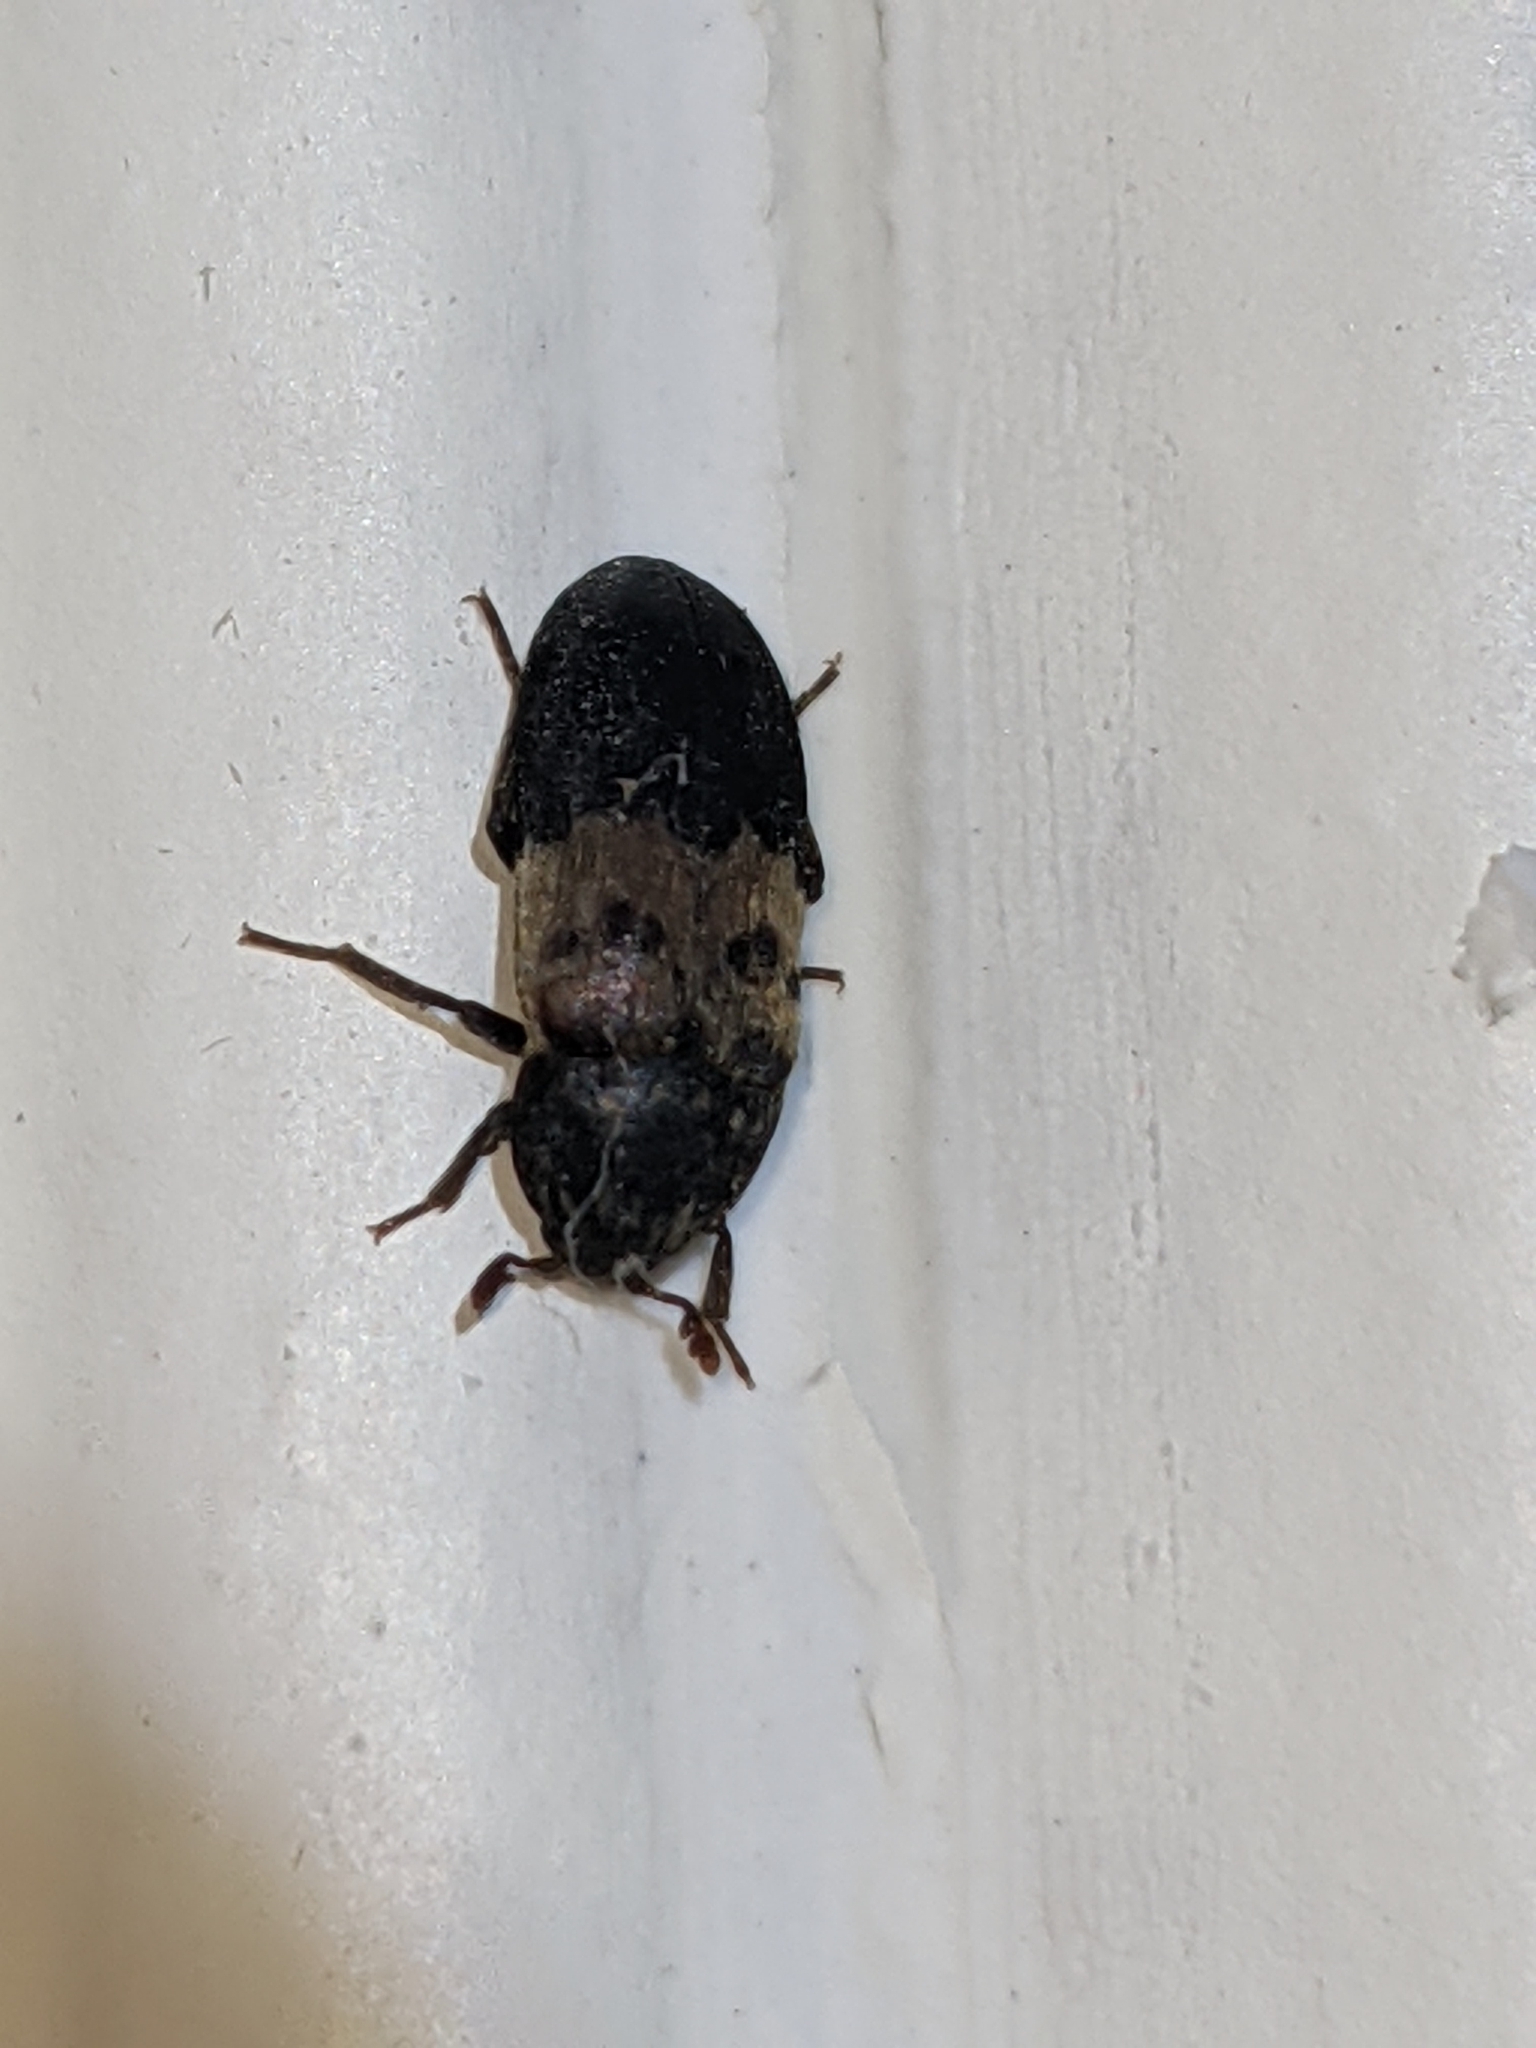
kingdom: Animalia
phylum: Arthropoda
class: Insecta
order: Coleoptera
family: Dermestidae
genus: Dermestes
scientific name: Dermestes lardarius
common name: Larder beetle
